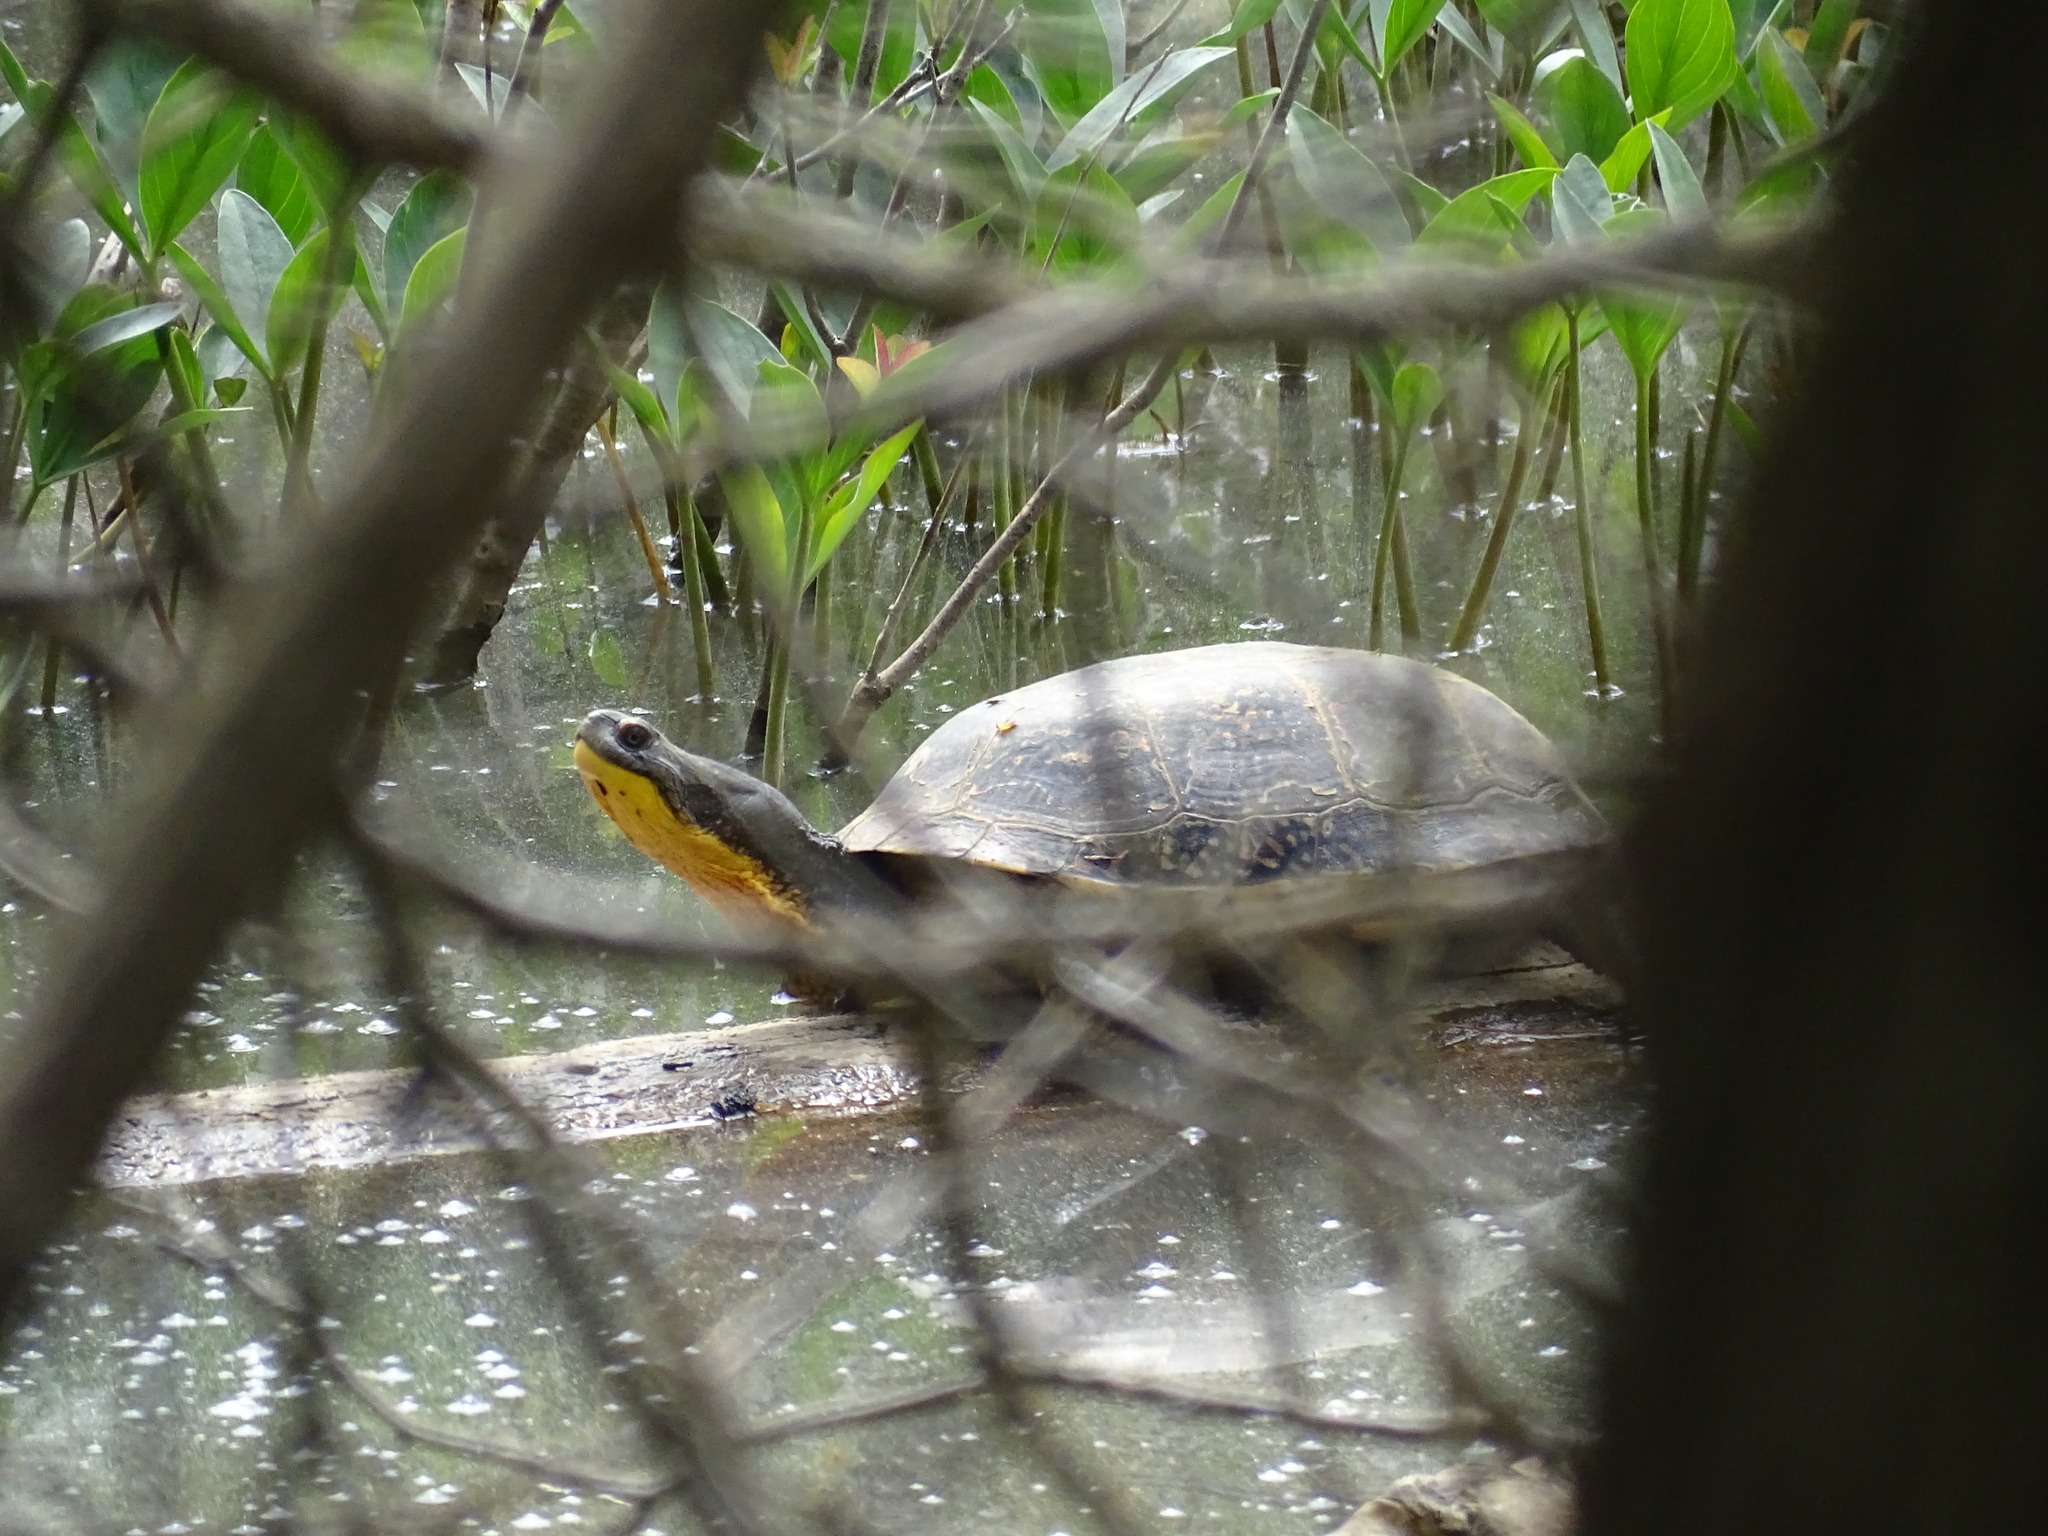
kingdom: Animalia
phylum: Chordata
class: Testudines
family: Emydidae
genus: Emys
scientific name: Emys blandingii
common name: Blanding's turtle
